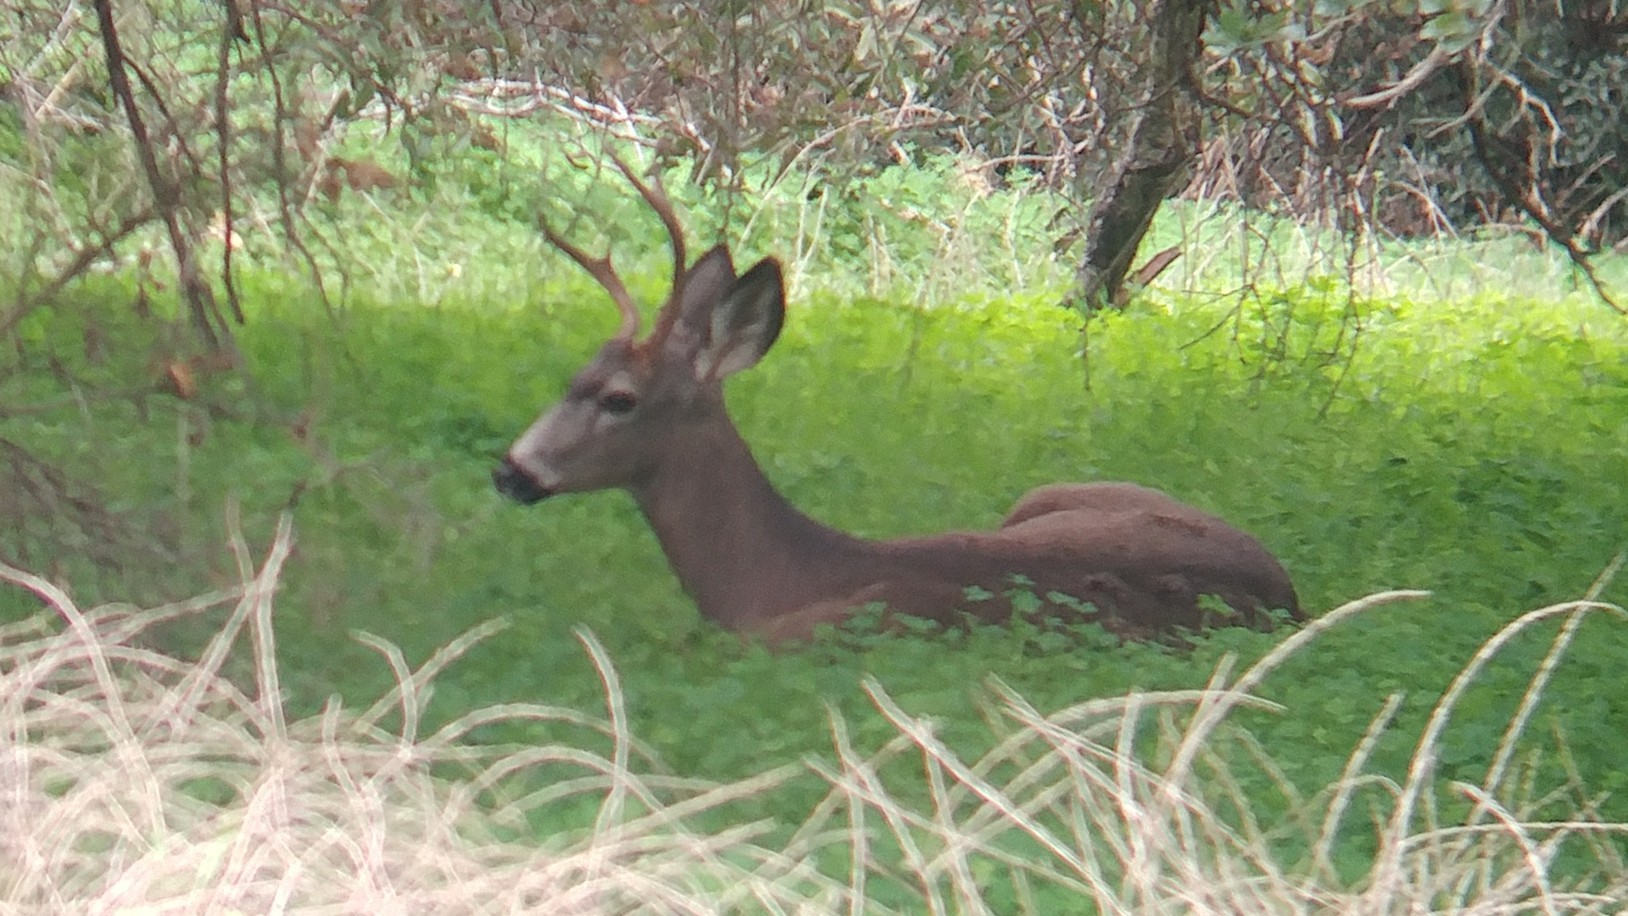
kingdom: Animalia
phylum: Chordata
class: Mammalia
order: Artiodactyla
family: Cervidae
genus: Odocoileus
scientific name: Odocoileus hemionus
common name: Mule deer
